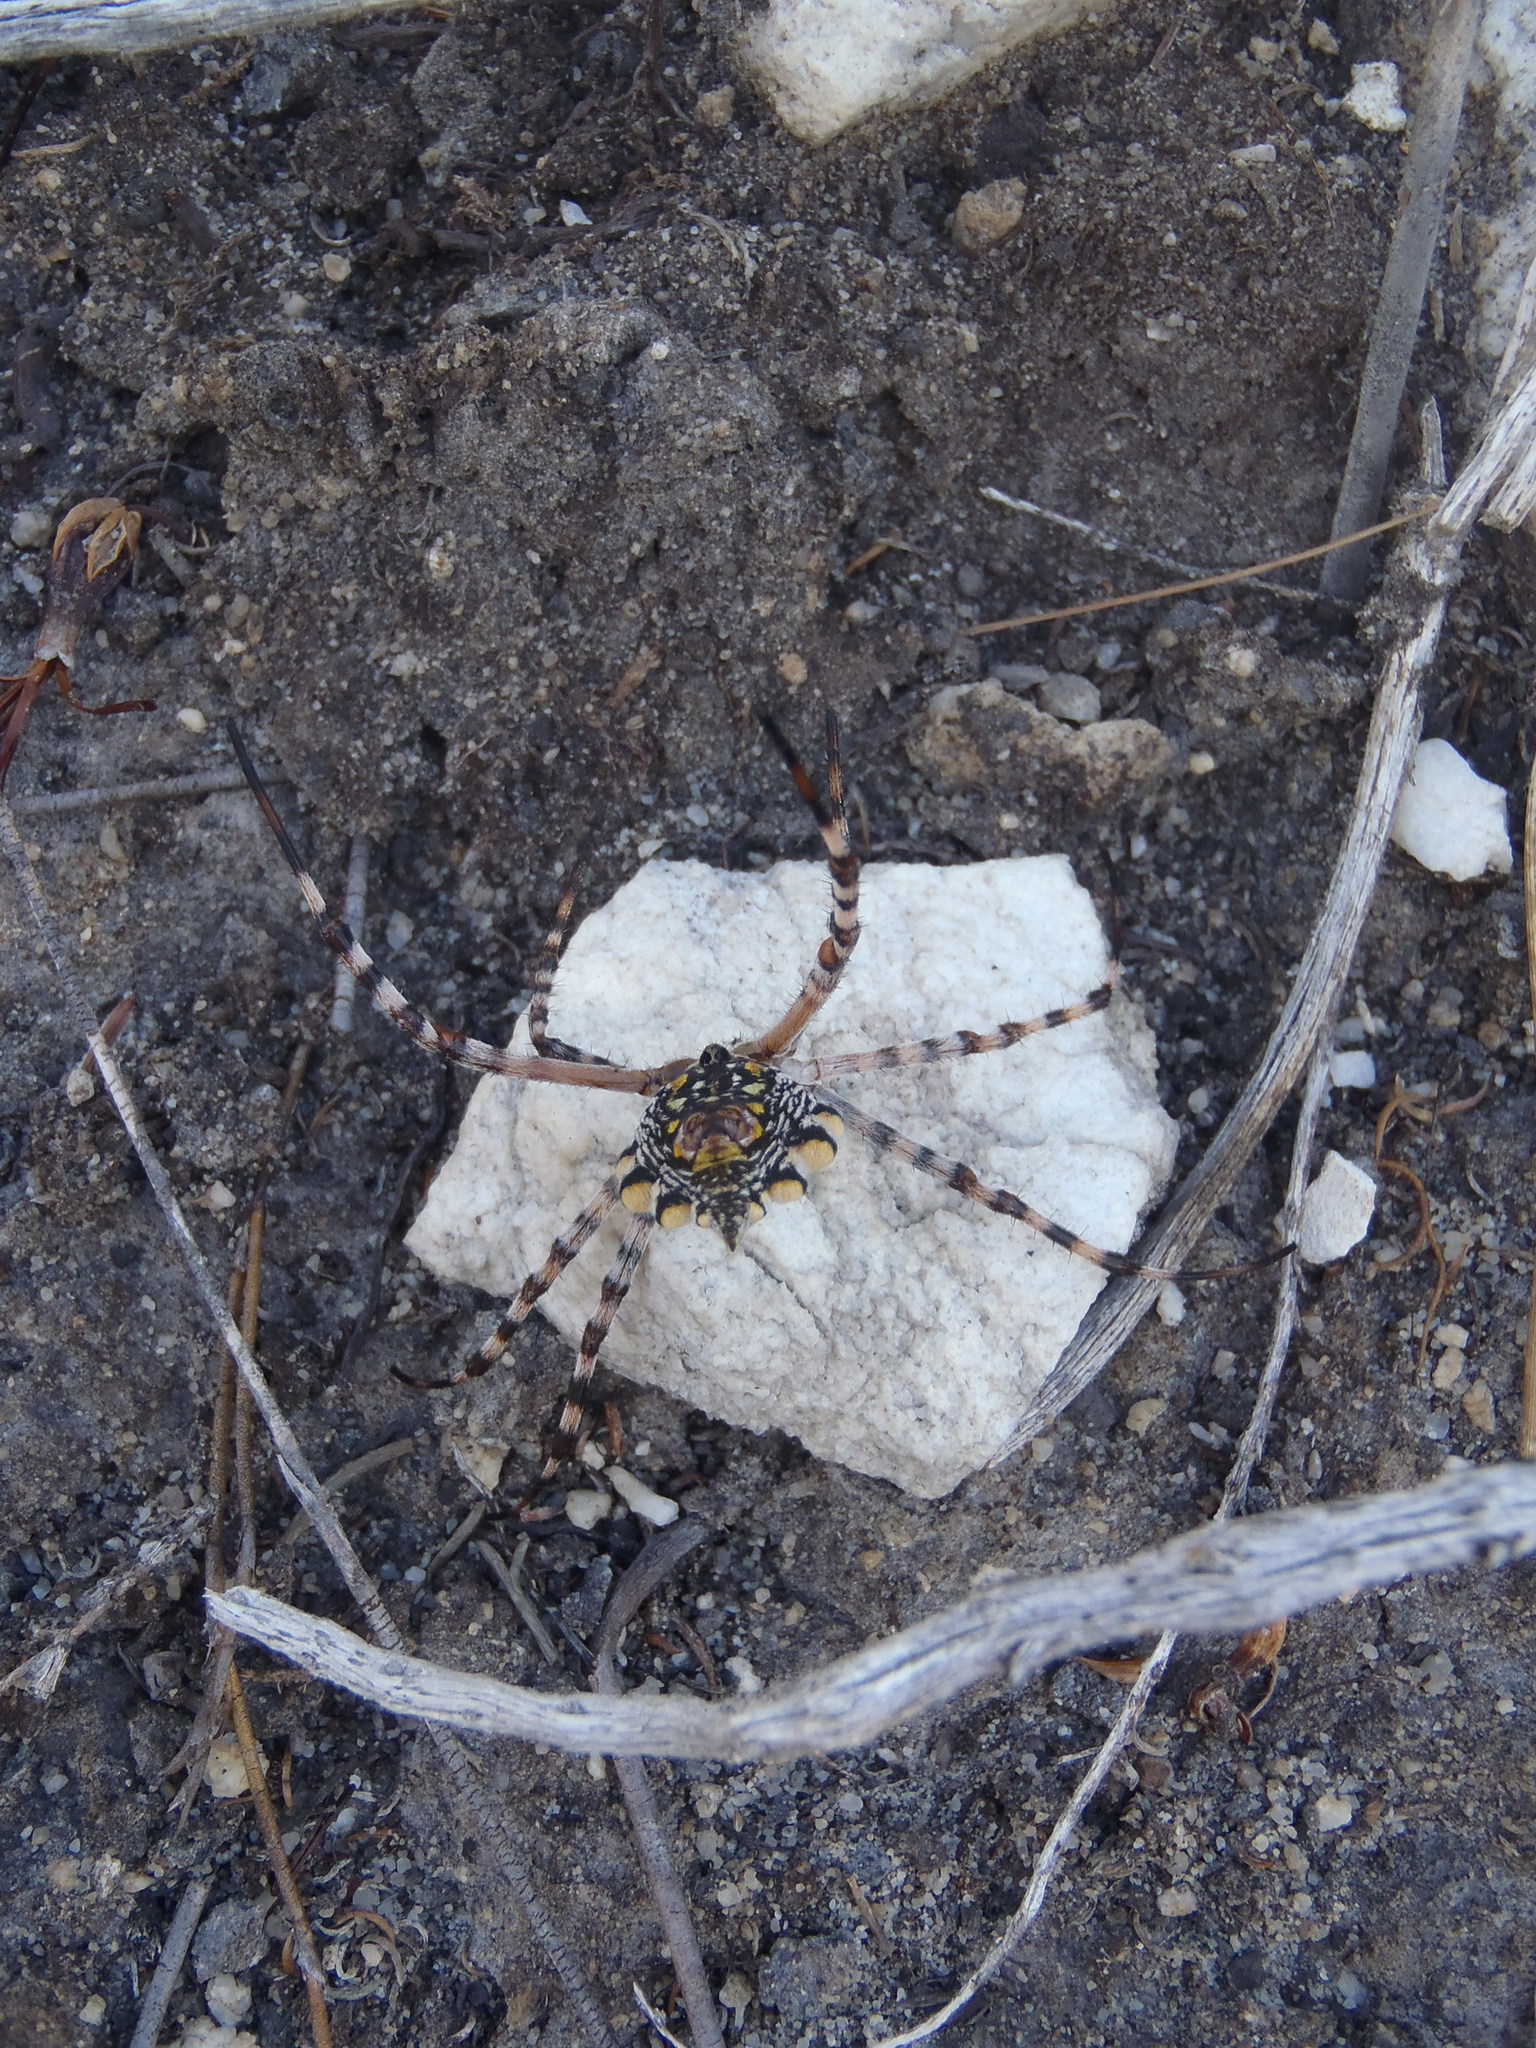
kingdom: Animalia
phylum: Arthropoda
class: Arachnida
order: Araneae
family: Araneidae
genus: Argiope
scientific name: Argiope australis
